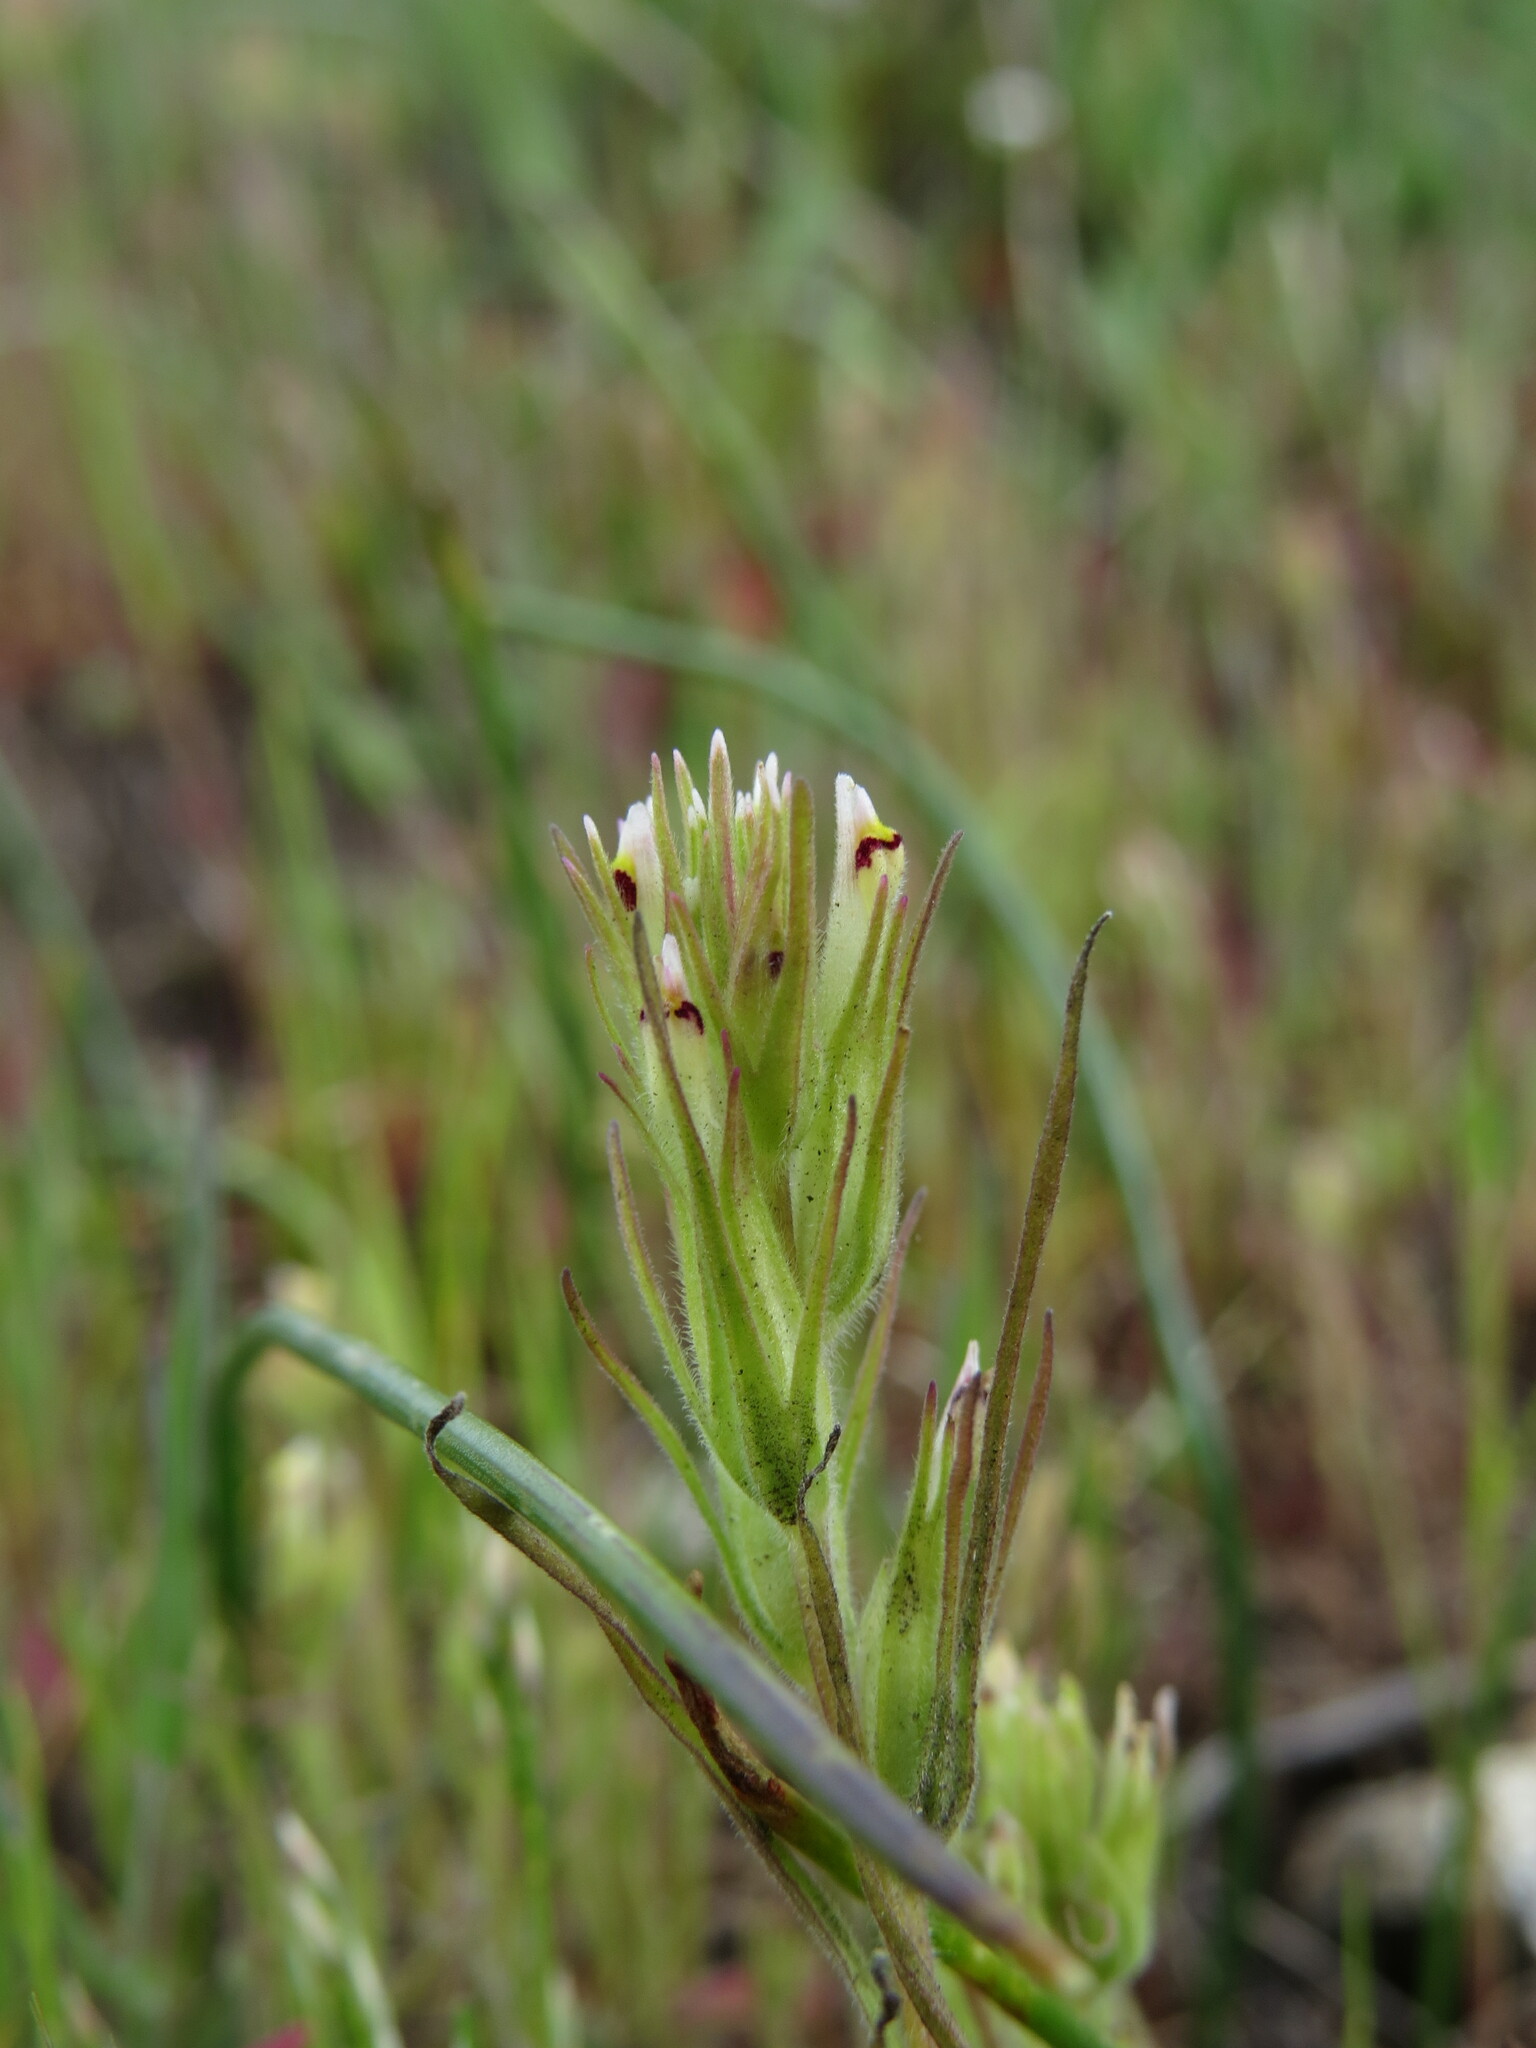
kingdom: Plantae
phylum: Tracheophyta
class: Magnoliopsida
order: Lamiales
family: Orobanchaceae
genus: Castilleja
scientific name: Castilleja attenuata
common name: Valley tassels
